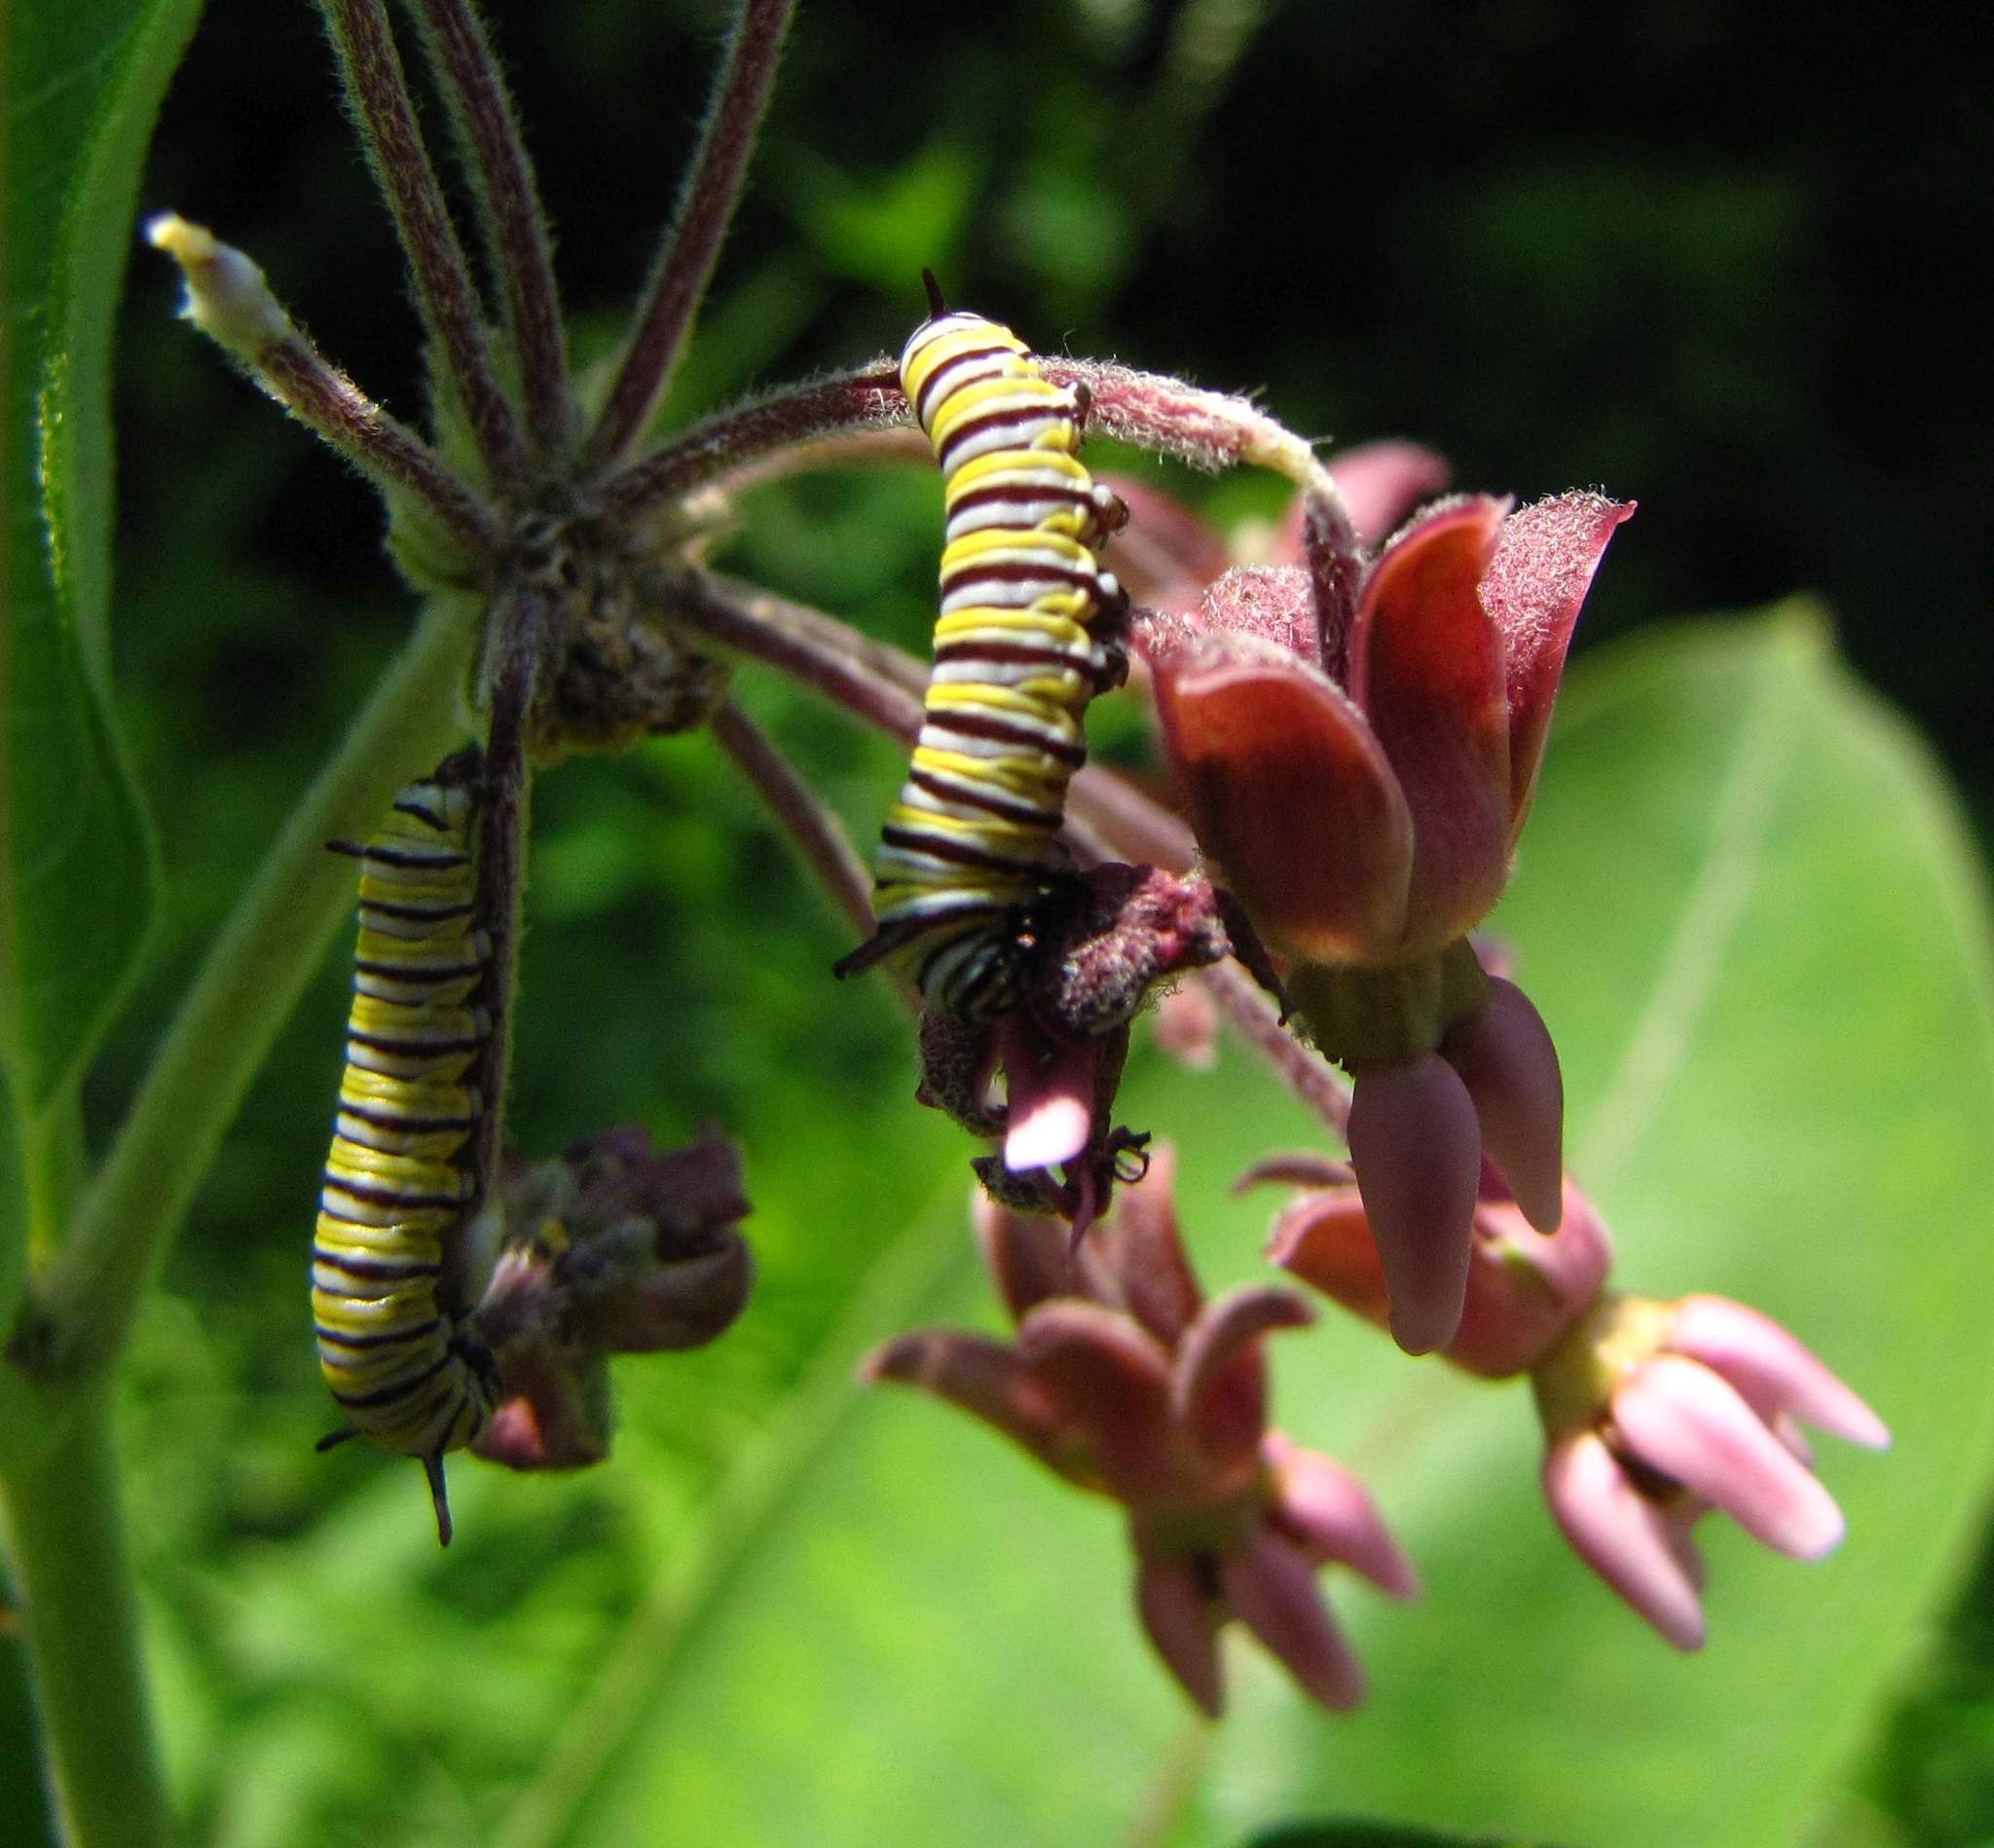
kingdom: Animalia
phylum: Arthropoda
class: Insecta
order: Lepidoptera
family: Nymphalidae
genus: Danaus
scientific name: Danaus plexippus
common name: Monarch
